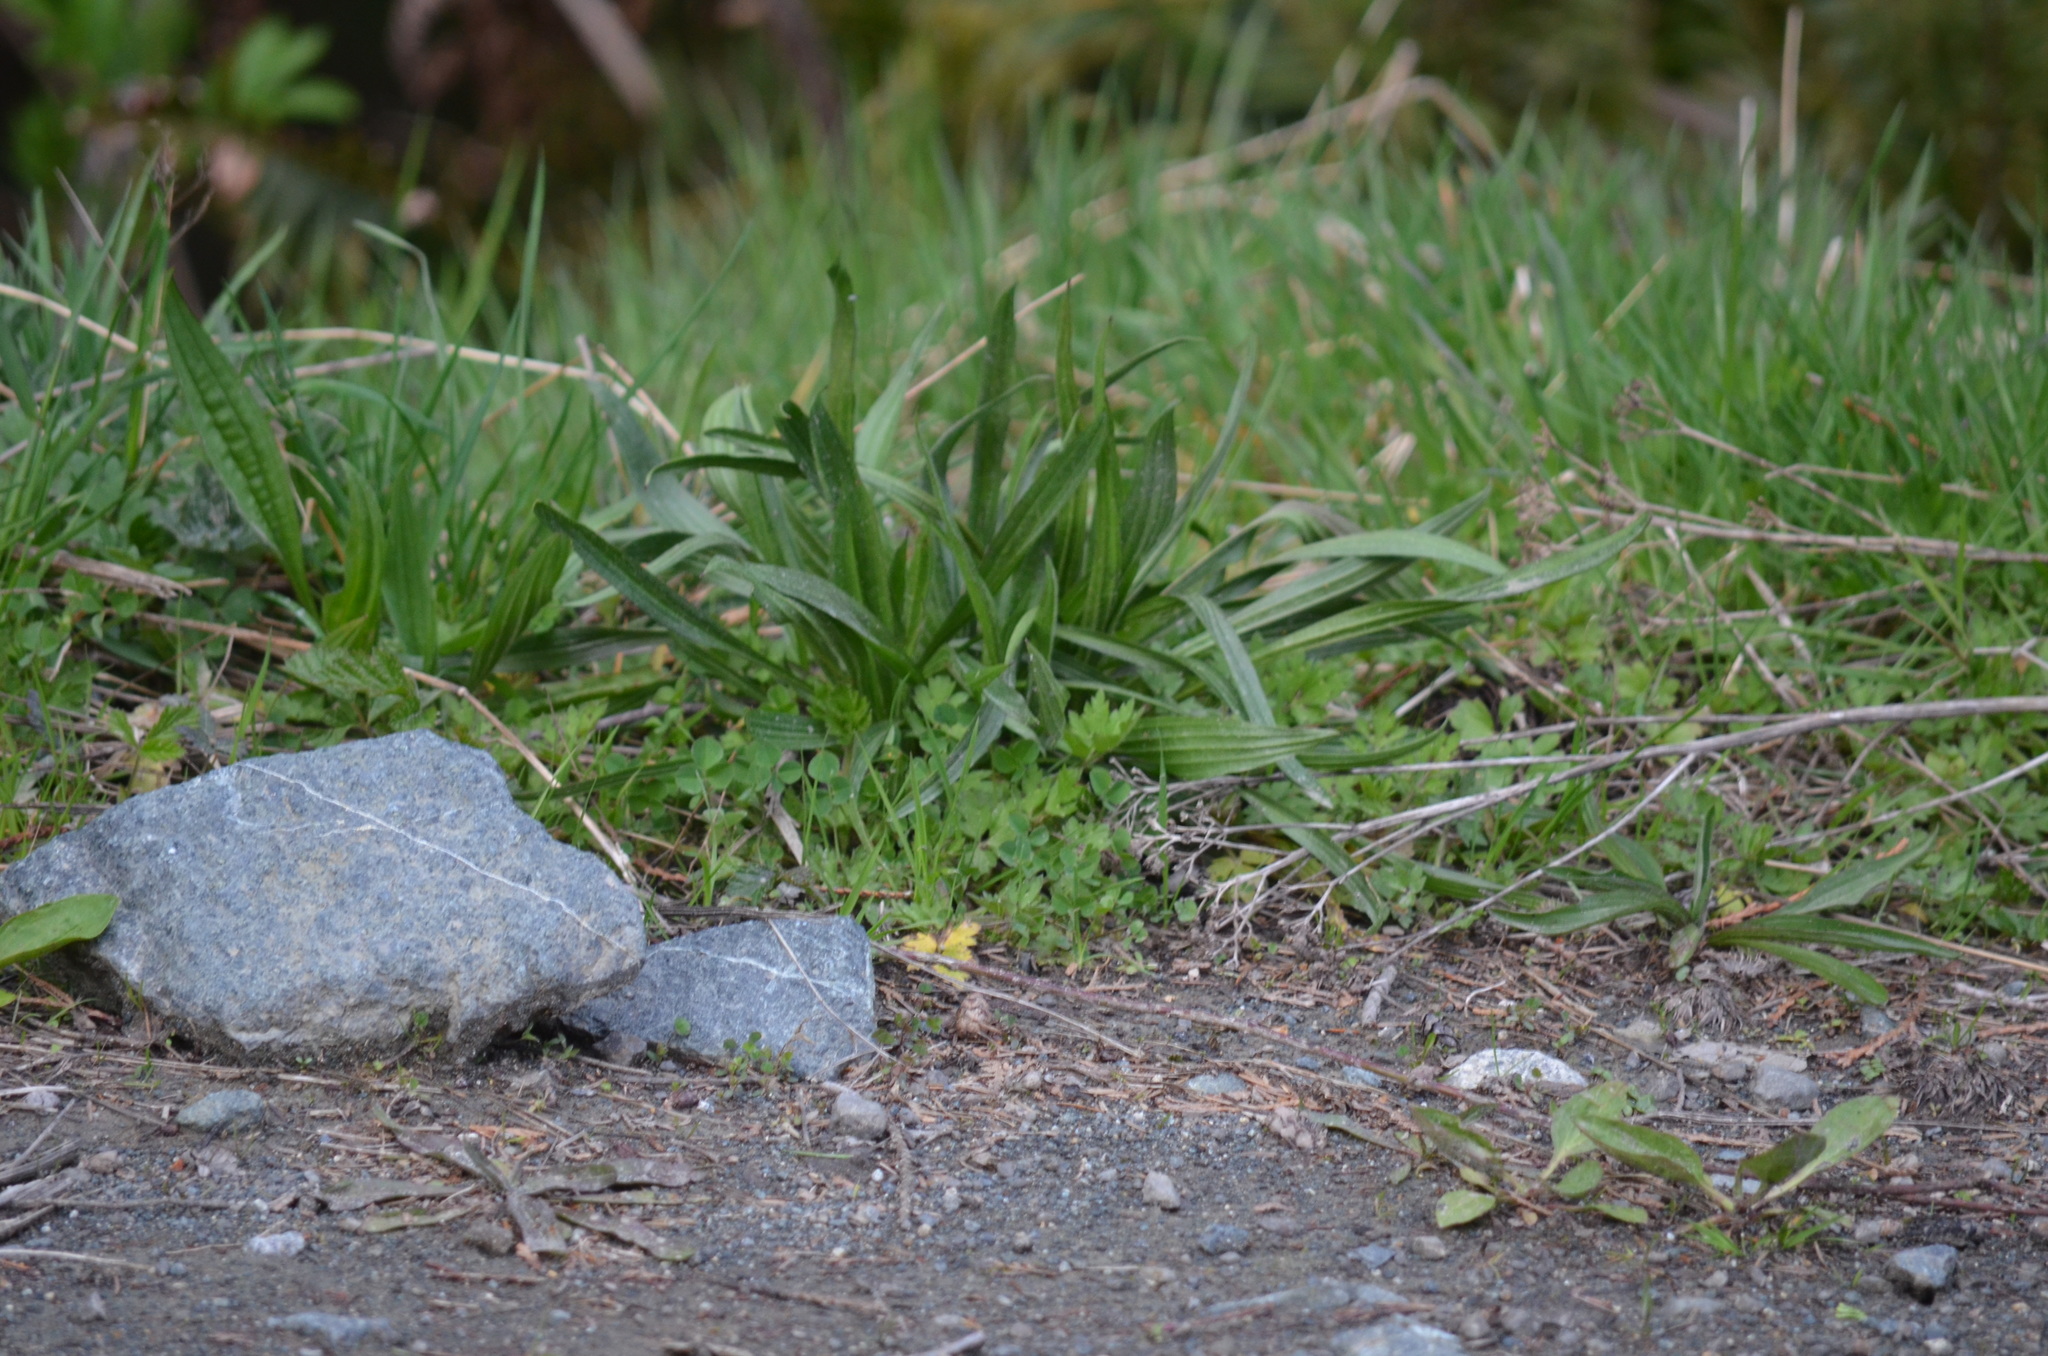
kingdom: Plantae
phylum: Tracheophyta
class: Magnoliopsida
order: Lamiales
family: Plantaginaceae
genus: Plantago
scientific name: Plantago lanceolata
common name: Ribwort plantain
